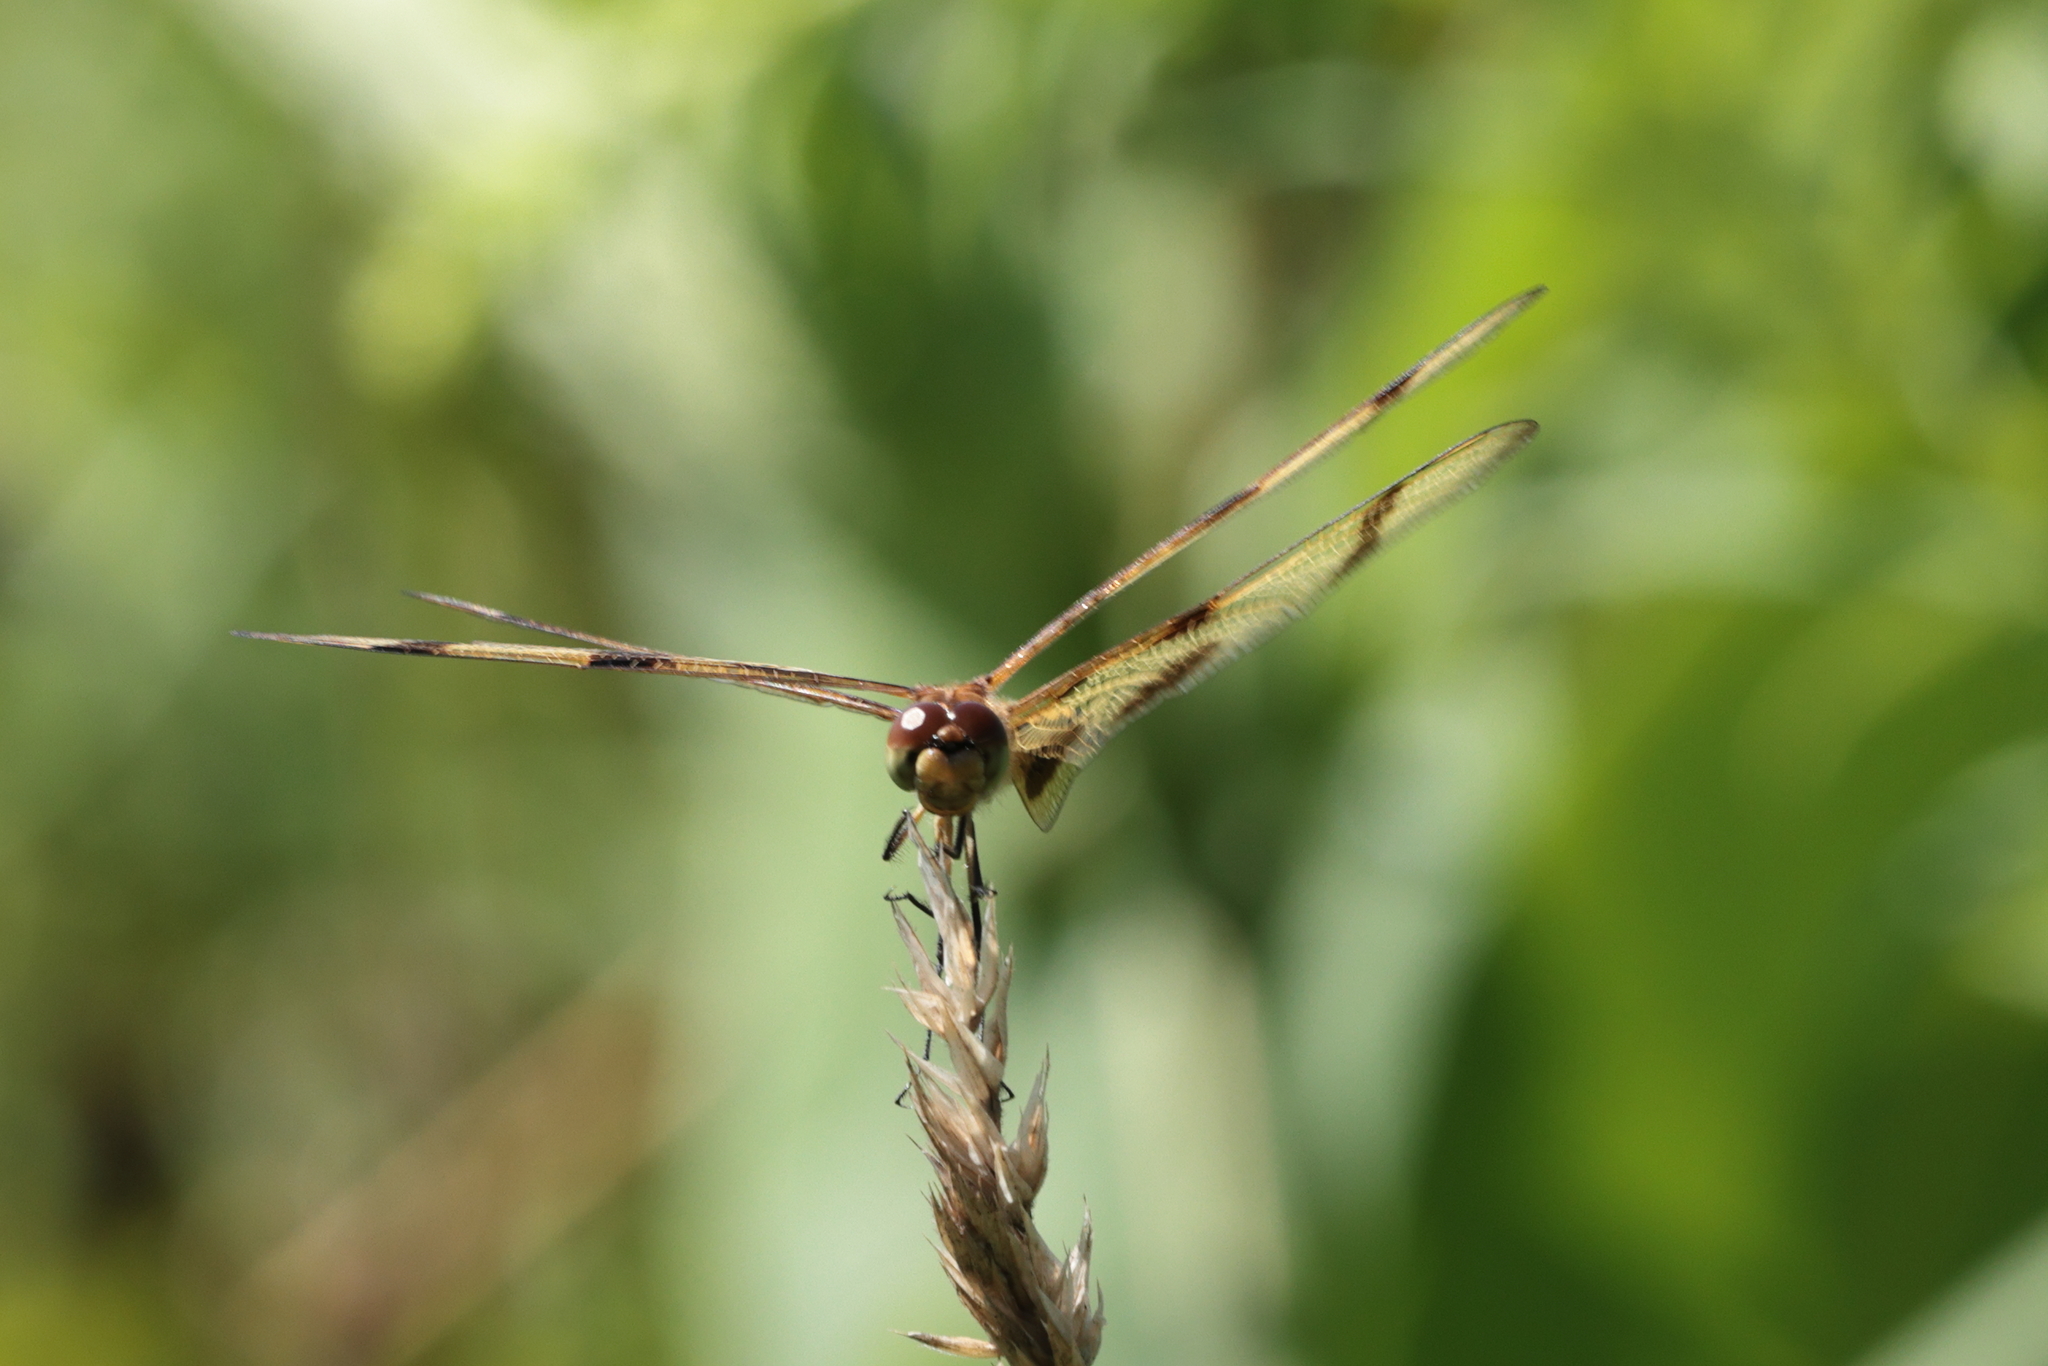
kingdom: Animalia
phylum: Arthropoda
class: Insecta
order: Odonata
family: Libellulidae
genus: Celithemis
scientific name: Celithemis eponina
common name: Halloween pennant
